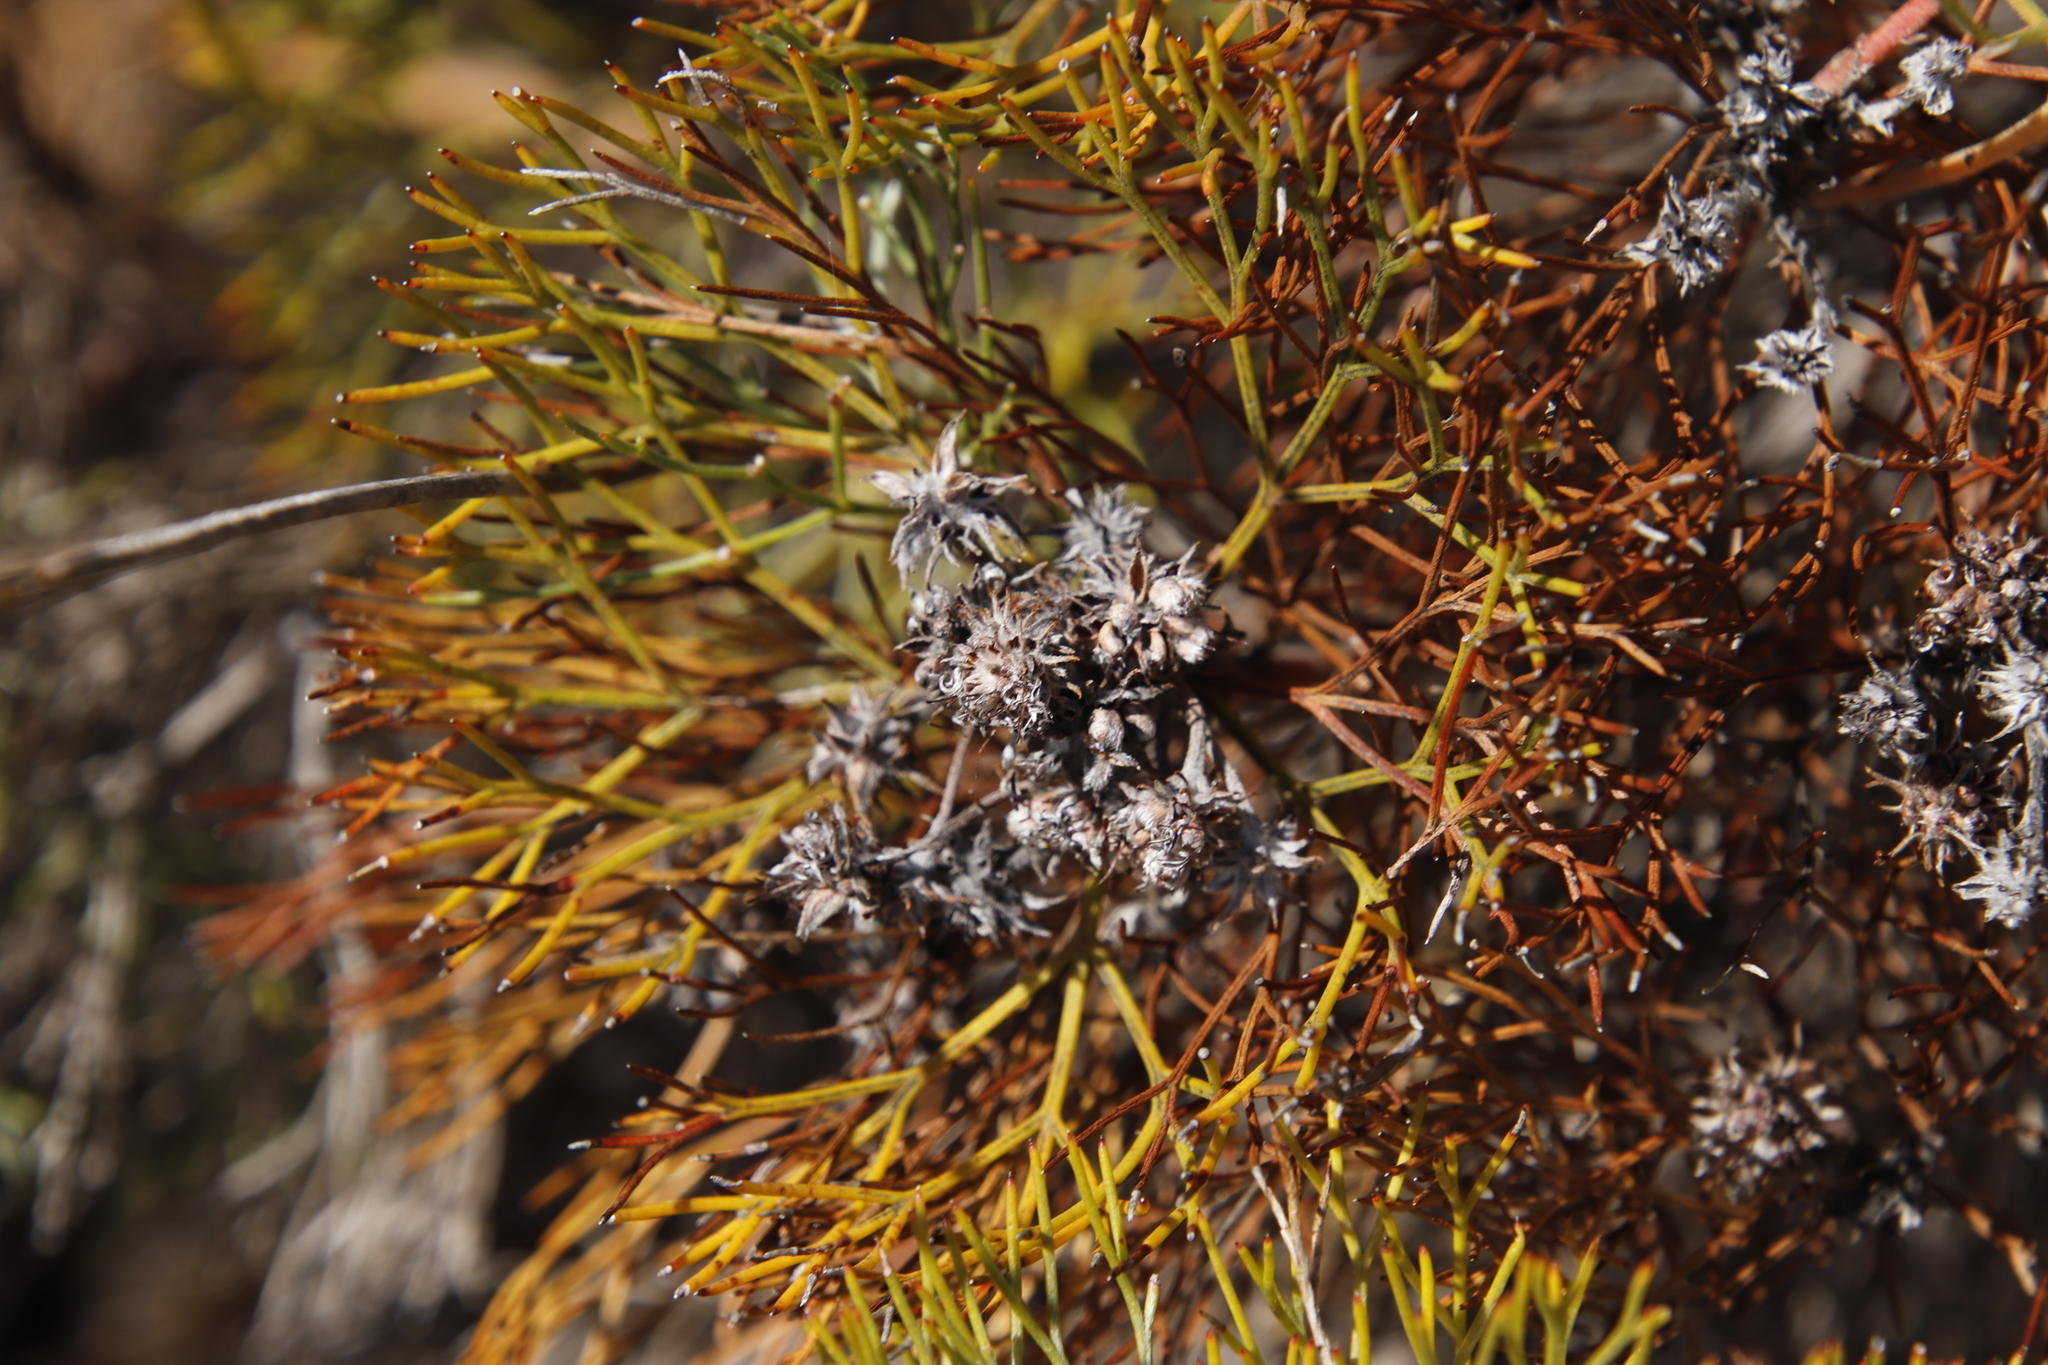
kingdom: Plantae
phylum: Tracheophyta
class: Magnoliopsida
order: Proteales
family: Proteaceae
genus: Serruria
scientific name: Serruria fasciflora
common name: Common pin spiderhead
